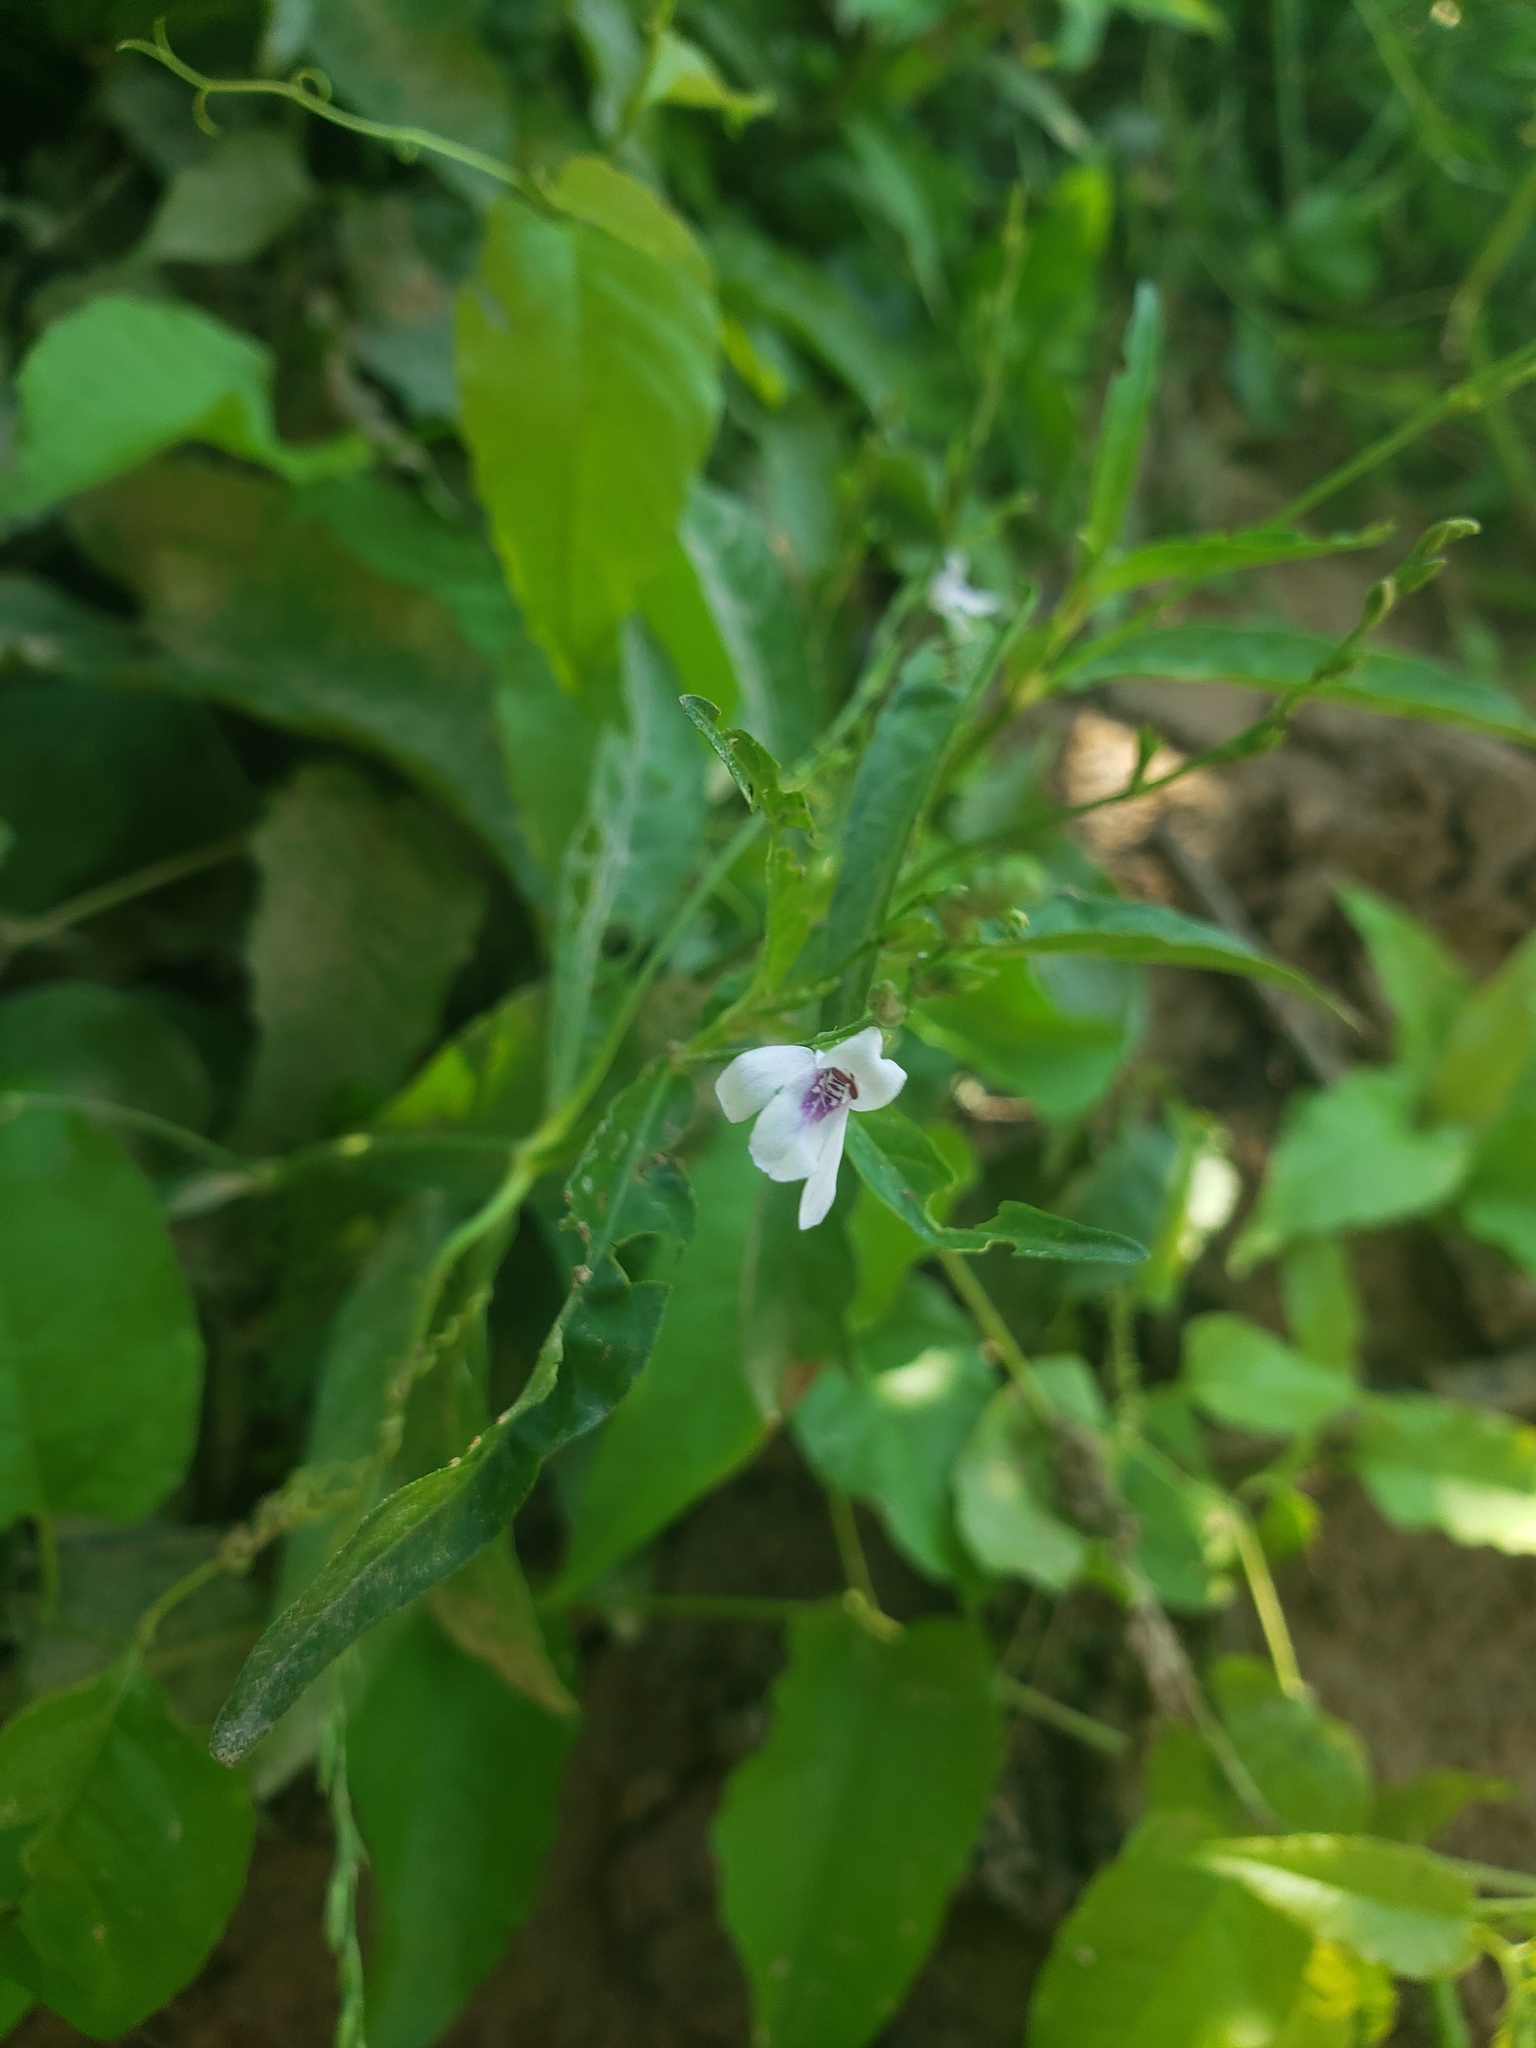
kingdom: Plantae
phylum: Tracheophyta
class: Magnoliopsida
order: Lamiales
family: Acanthaceae
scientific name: Acanthaceae
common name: Acanthaceae
